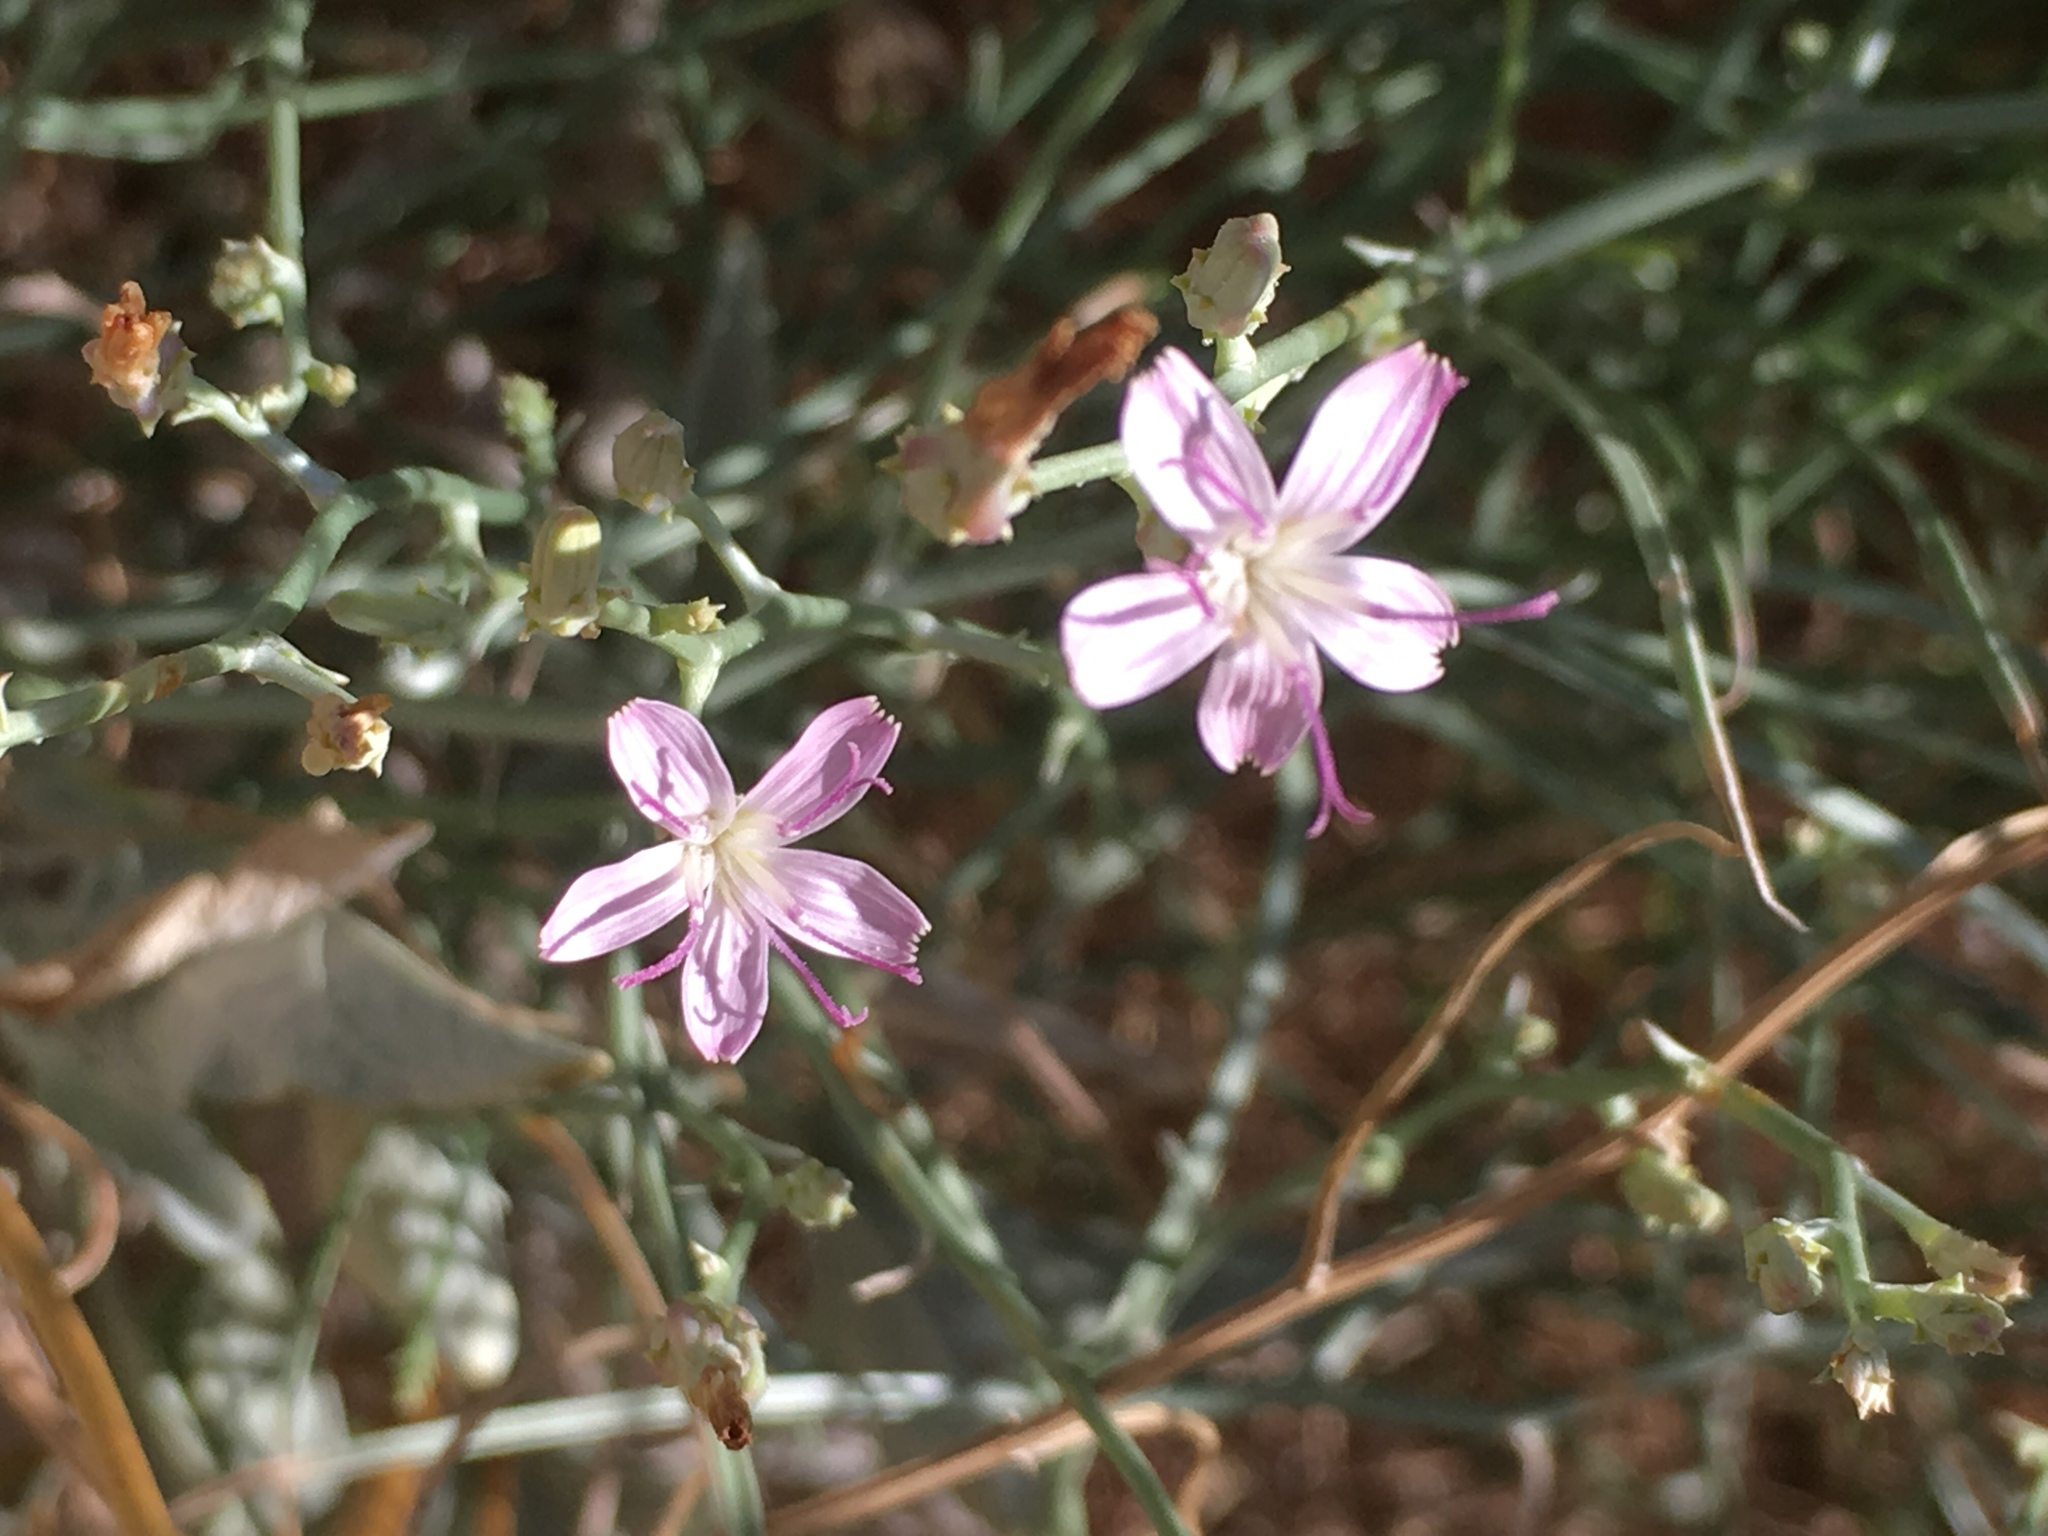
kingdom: Plantae
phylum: Tracheophyta
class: Magnoliopsida
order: Asterales
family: Asteraceae
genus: Stephanomeria
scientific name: Stephanomeria pauciflora
